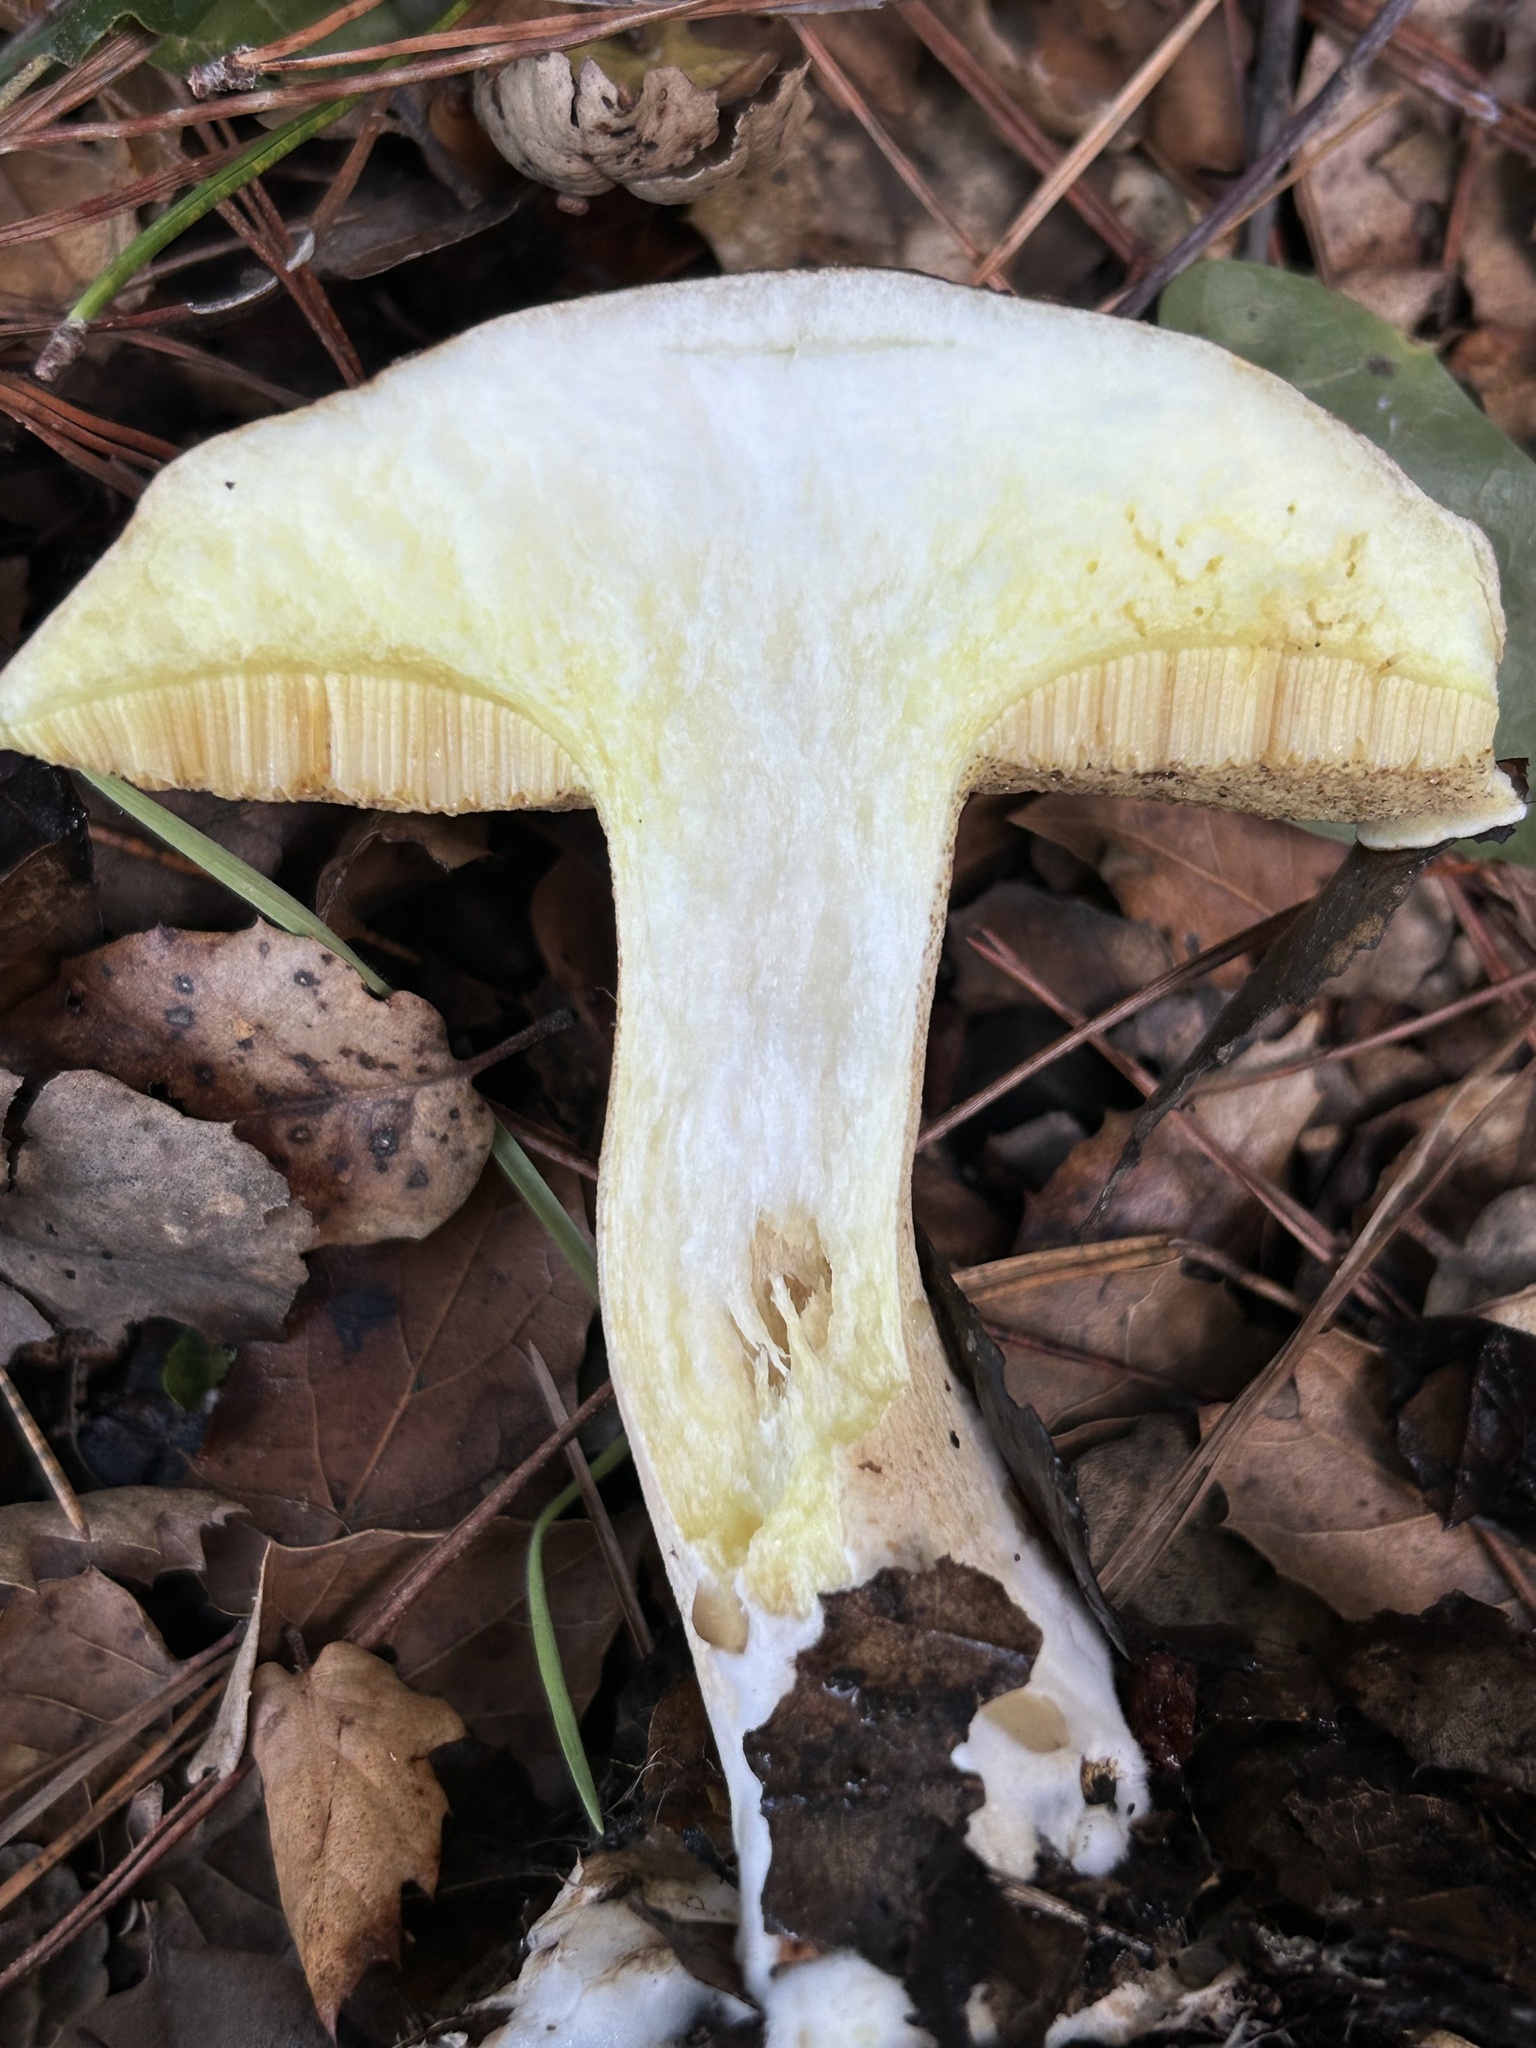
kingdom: Fungi
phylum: Basidiomycota
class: Agaricomycetes
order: Boletales
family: Suillaceae
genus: Suillus
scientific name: Suillus pungens
